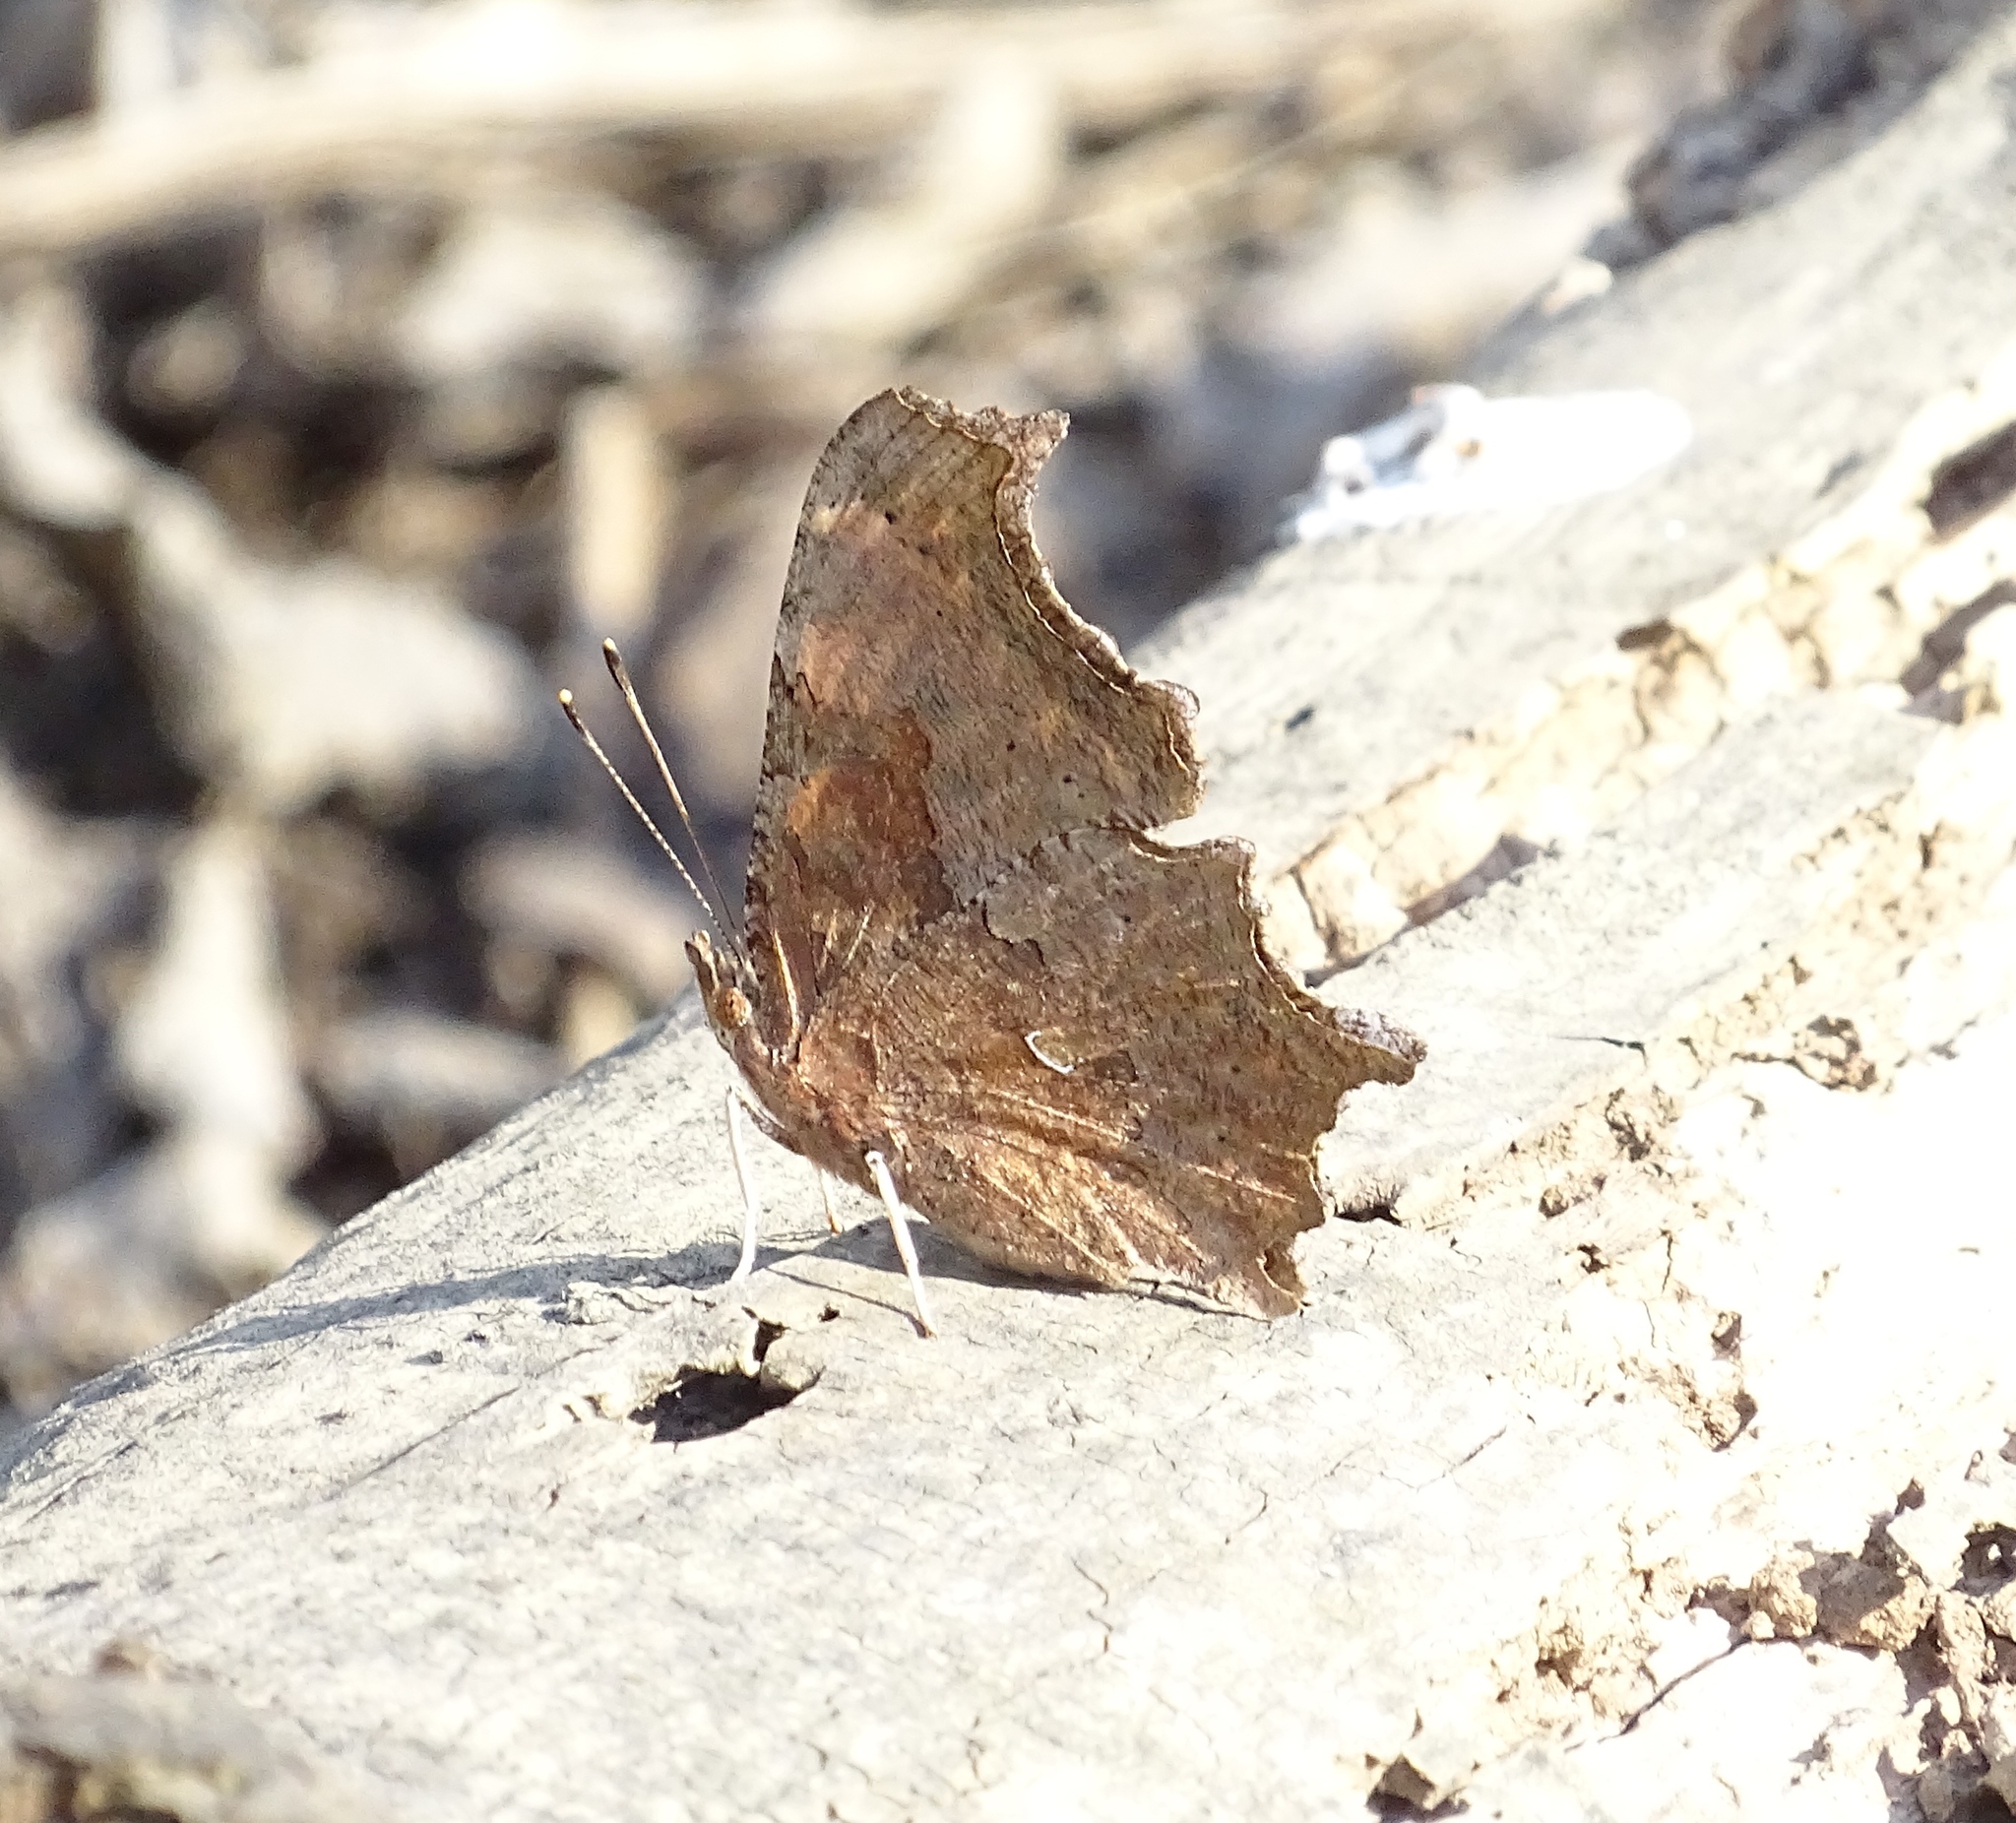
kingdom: Animalia
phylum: Arthropoda
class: Insecta
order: Lepidoptera
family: Nymphalidae
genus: Polygonia
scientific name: Polygonia comma
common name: Eastern comma
